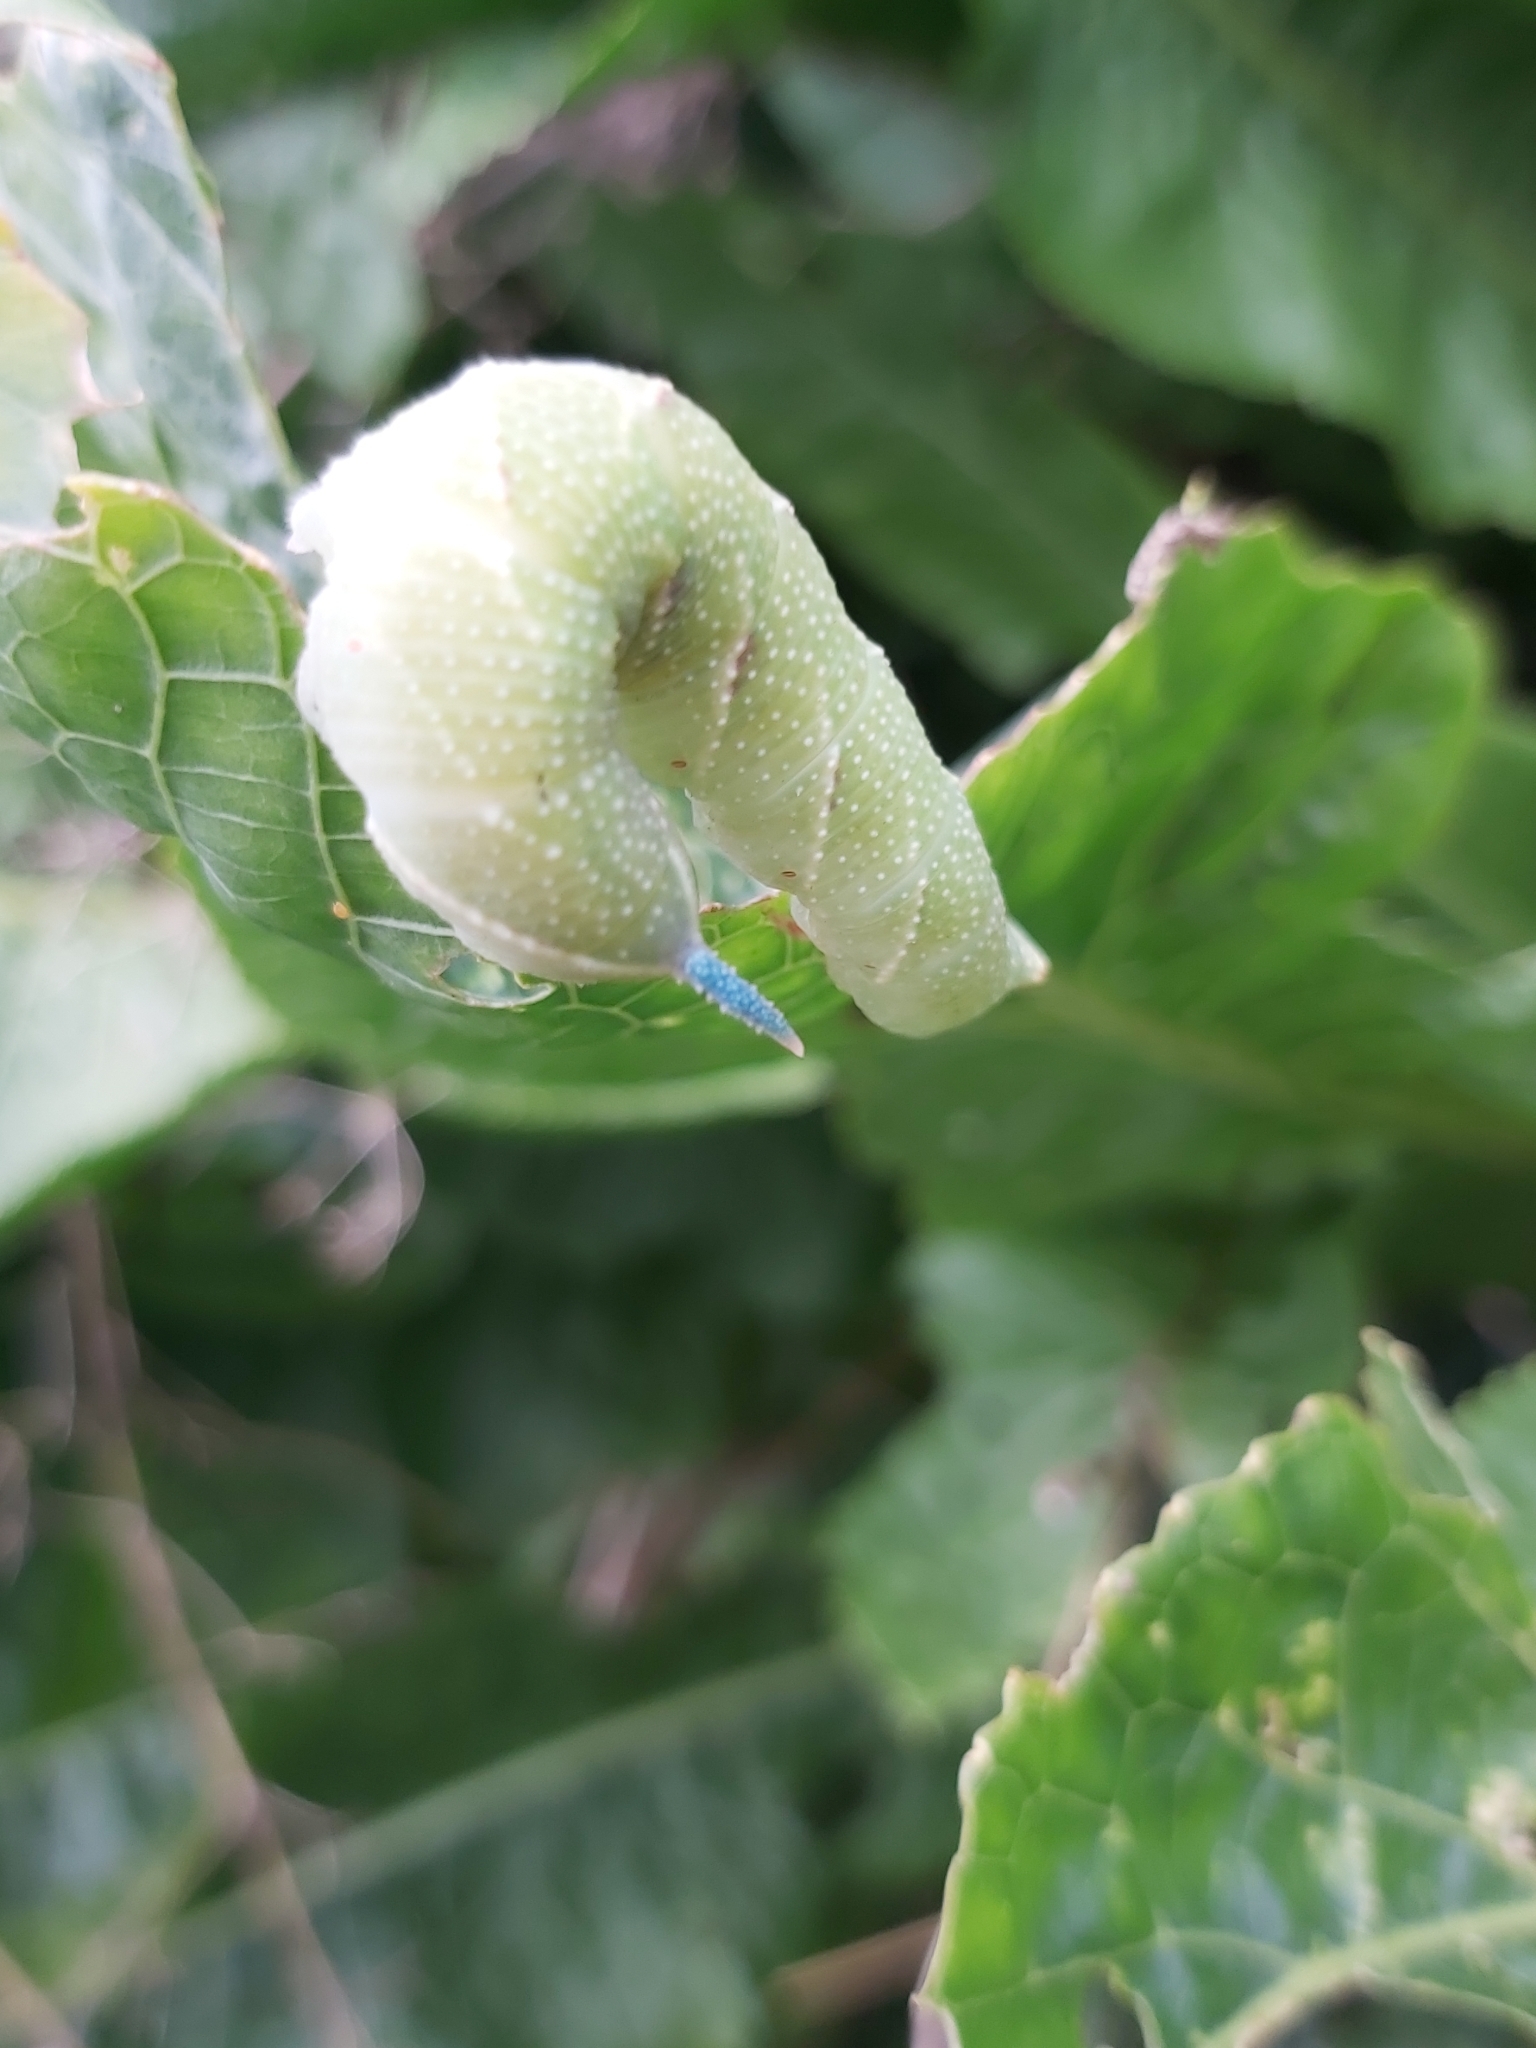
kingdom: Animalia
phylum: Arthropoda
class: Insecta
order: Lepidoptera
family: Sphingidae
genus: Mimas
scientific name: Mimas tiliae
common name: Lime hawk-moth
